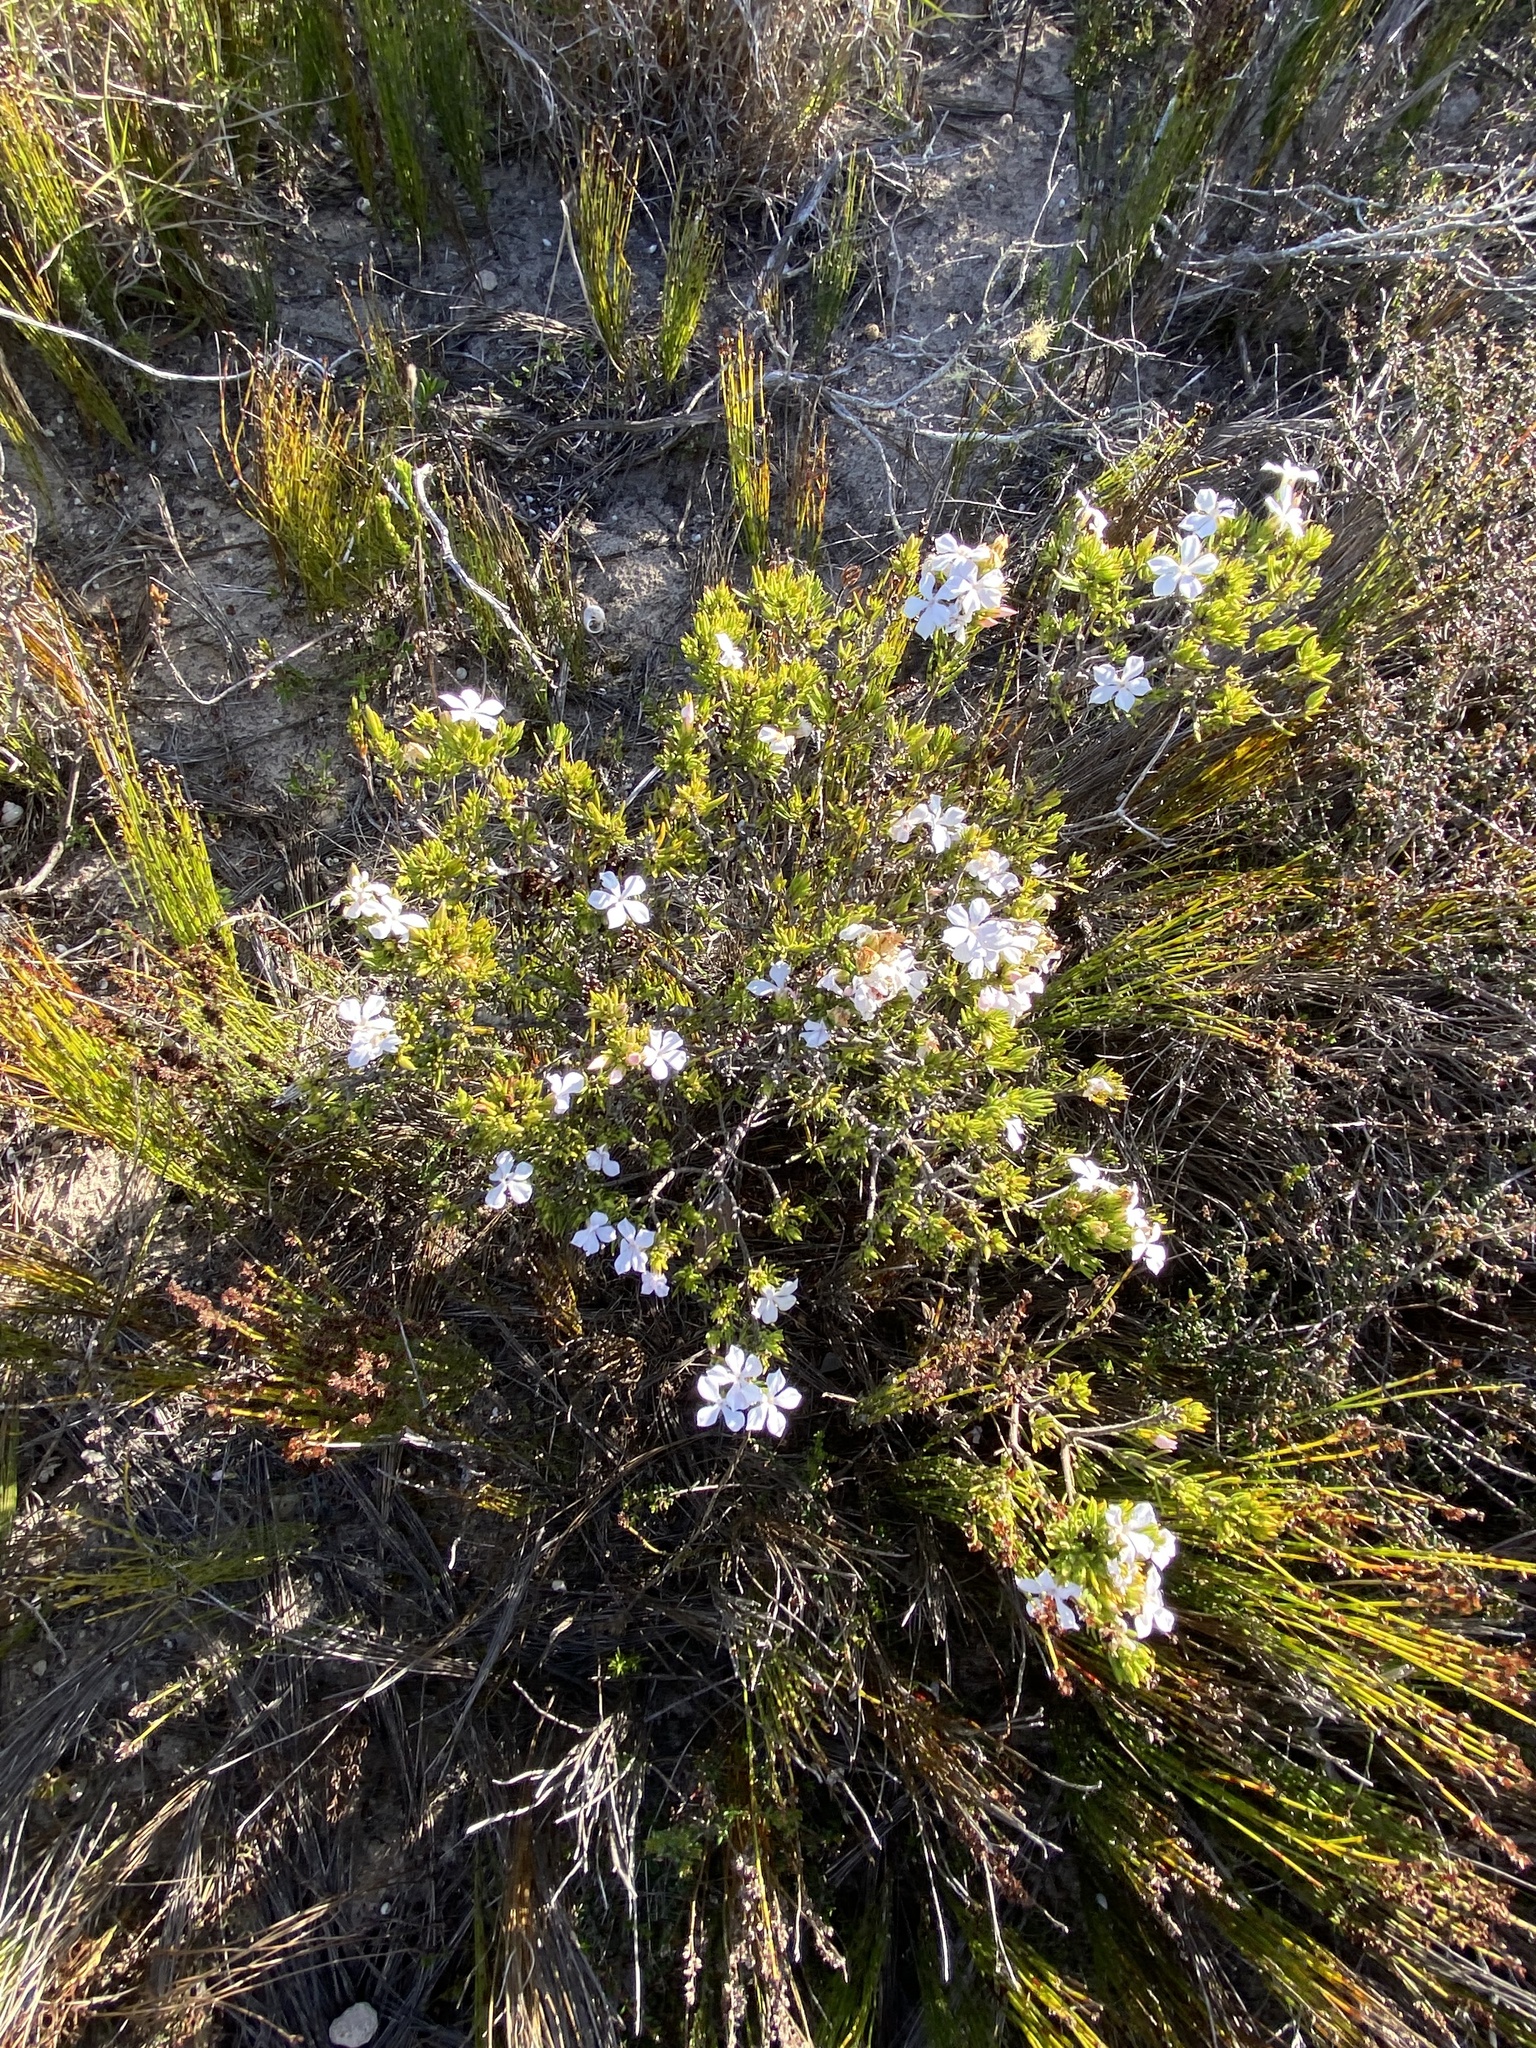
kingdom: Plantae
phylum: Tracheophyta
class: Magnoliopsida
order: Sapindales
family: Rutaceae
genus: Acmadenia
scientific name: Acmadenia obtusata
